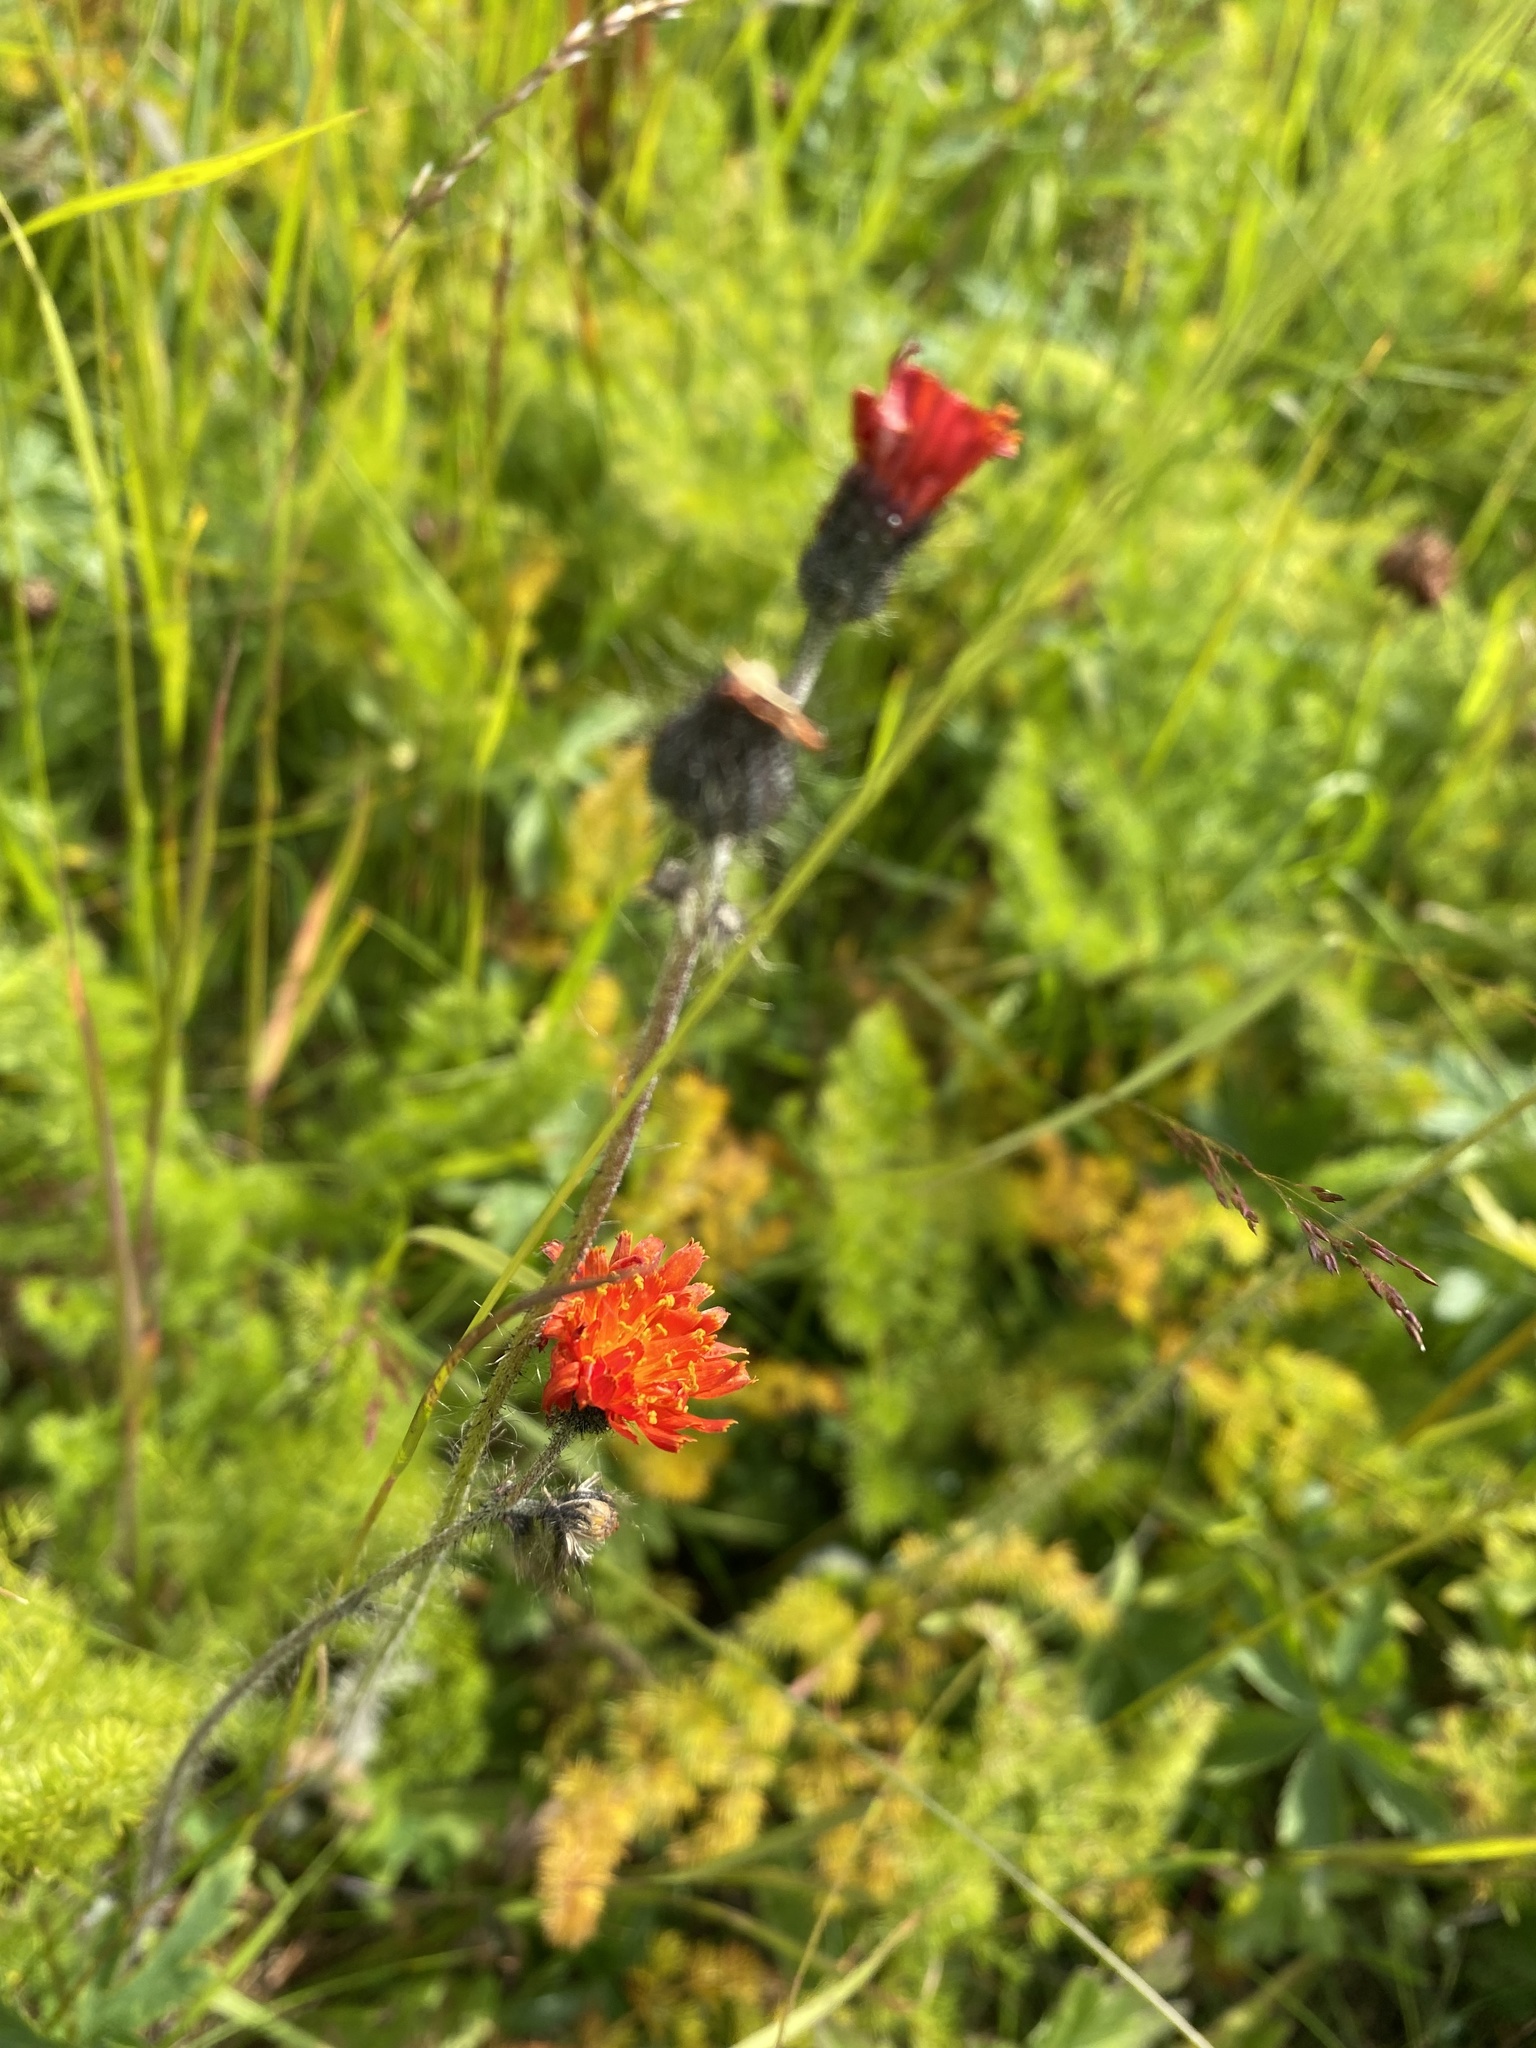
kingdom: Plantae
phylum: Tracheophyta
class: Magnoliopsida
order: Asterales
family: Asteraceae
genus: Pilosella
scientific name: Pilosella aurantiaca
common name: Fox-and-cubs
